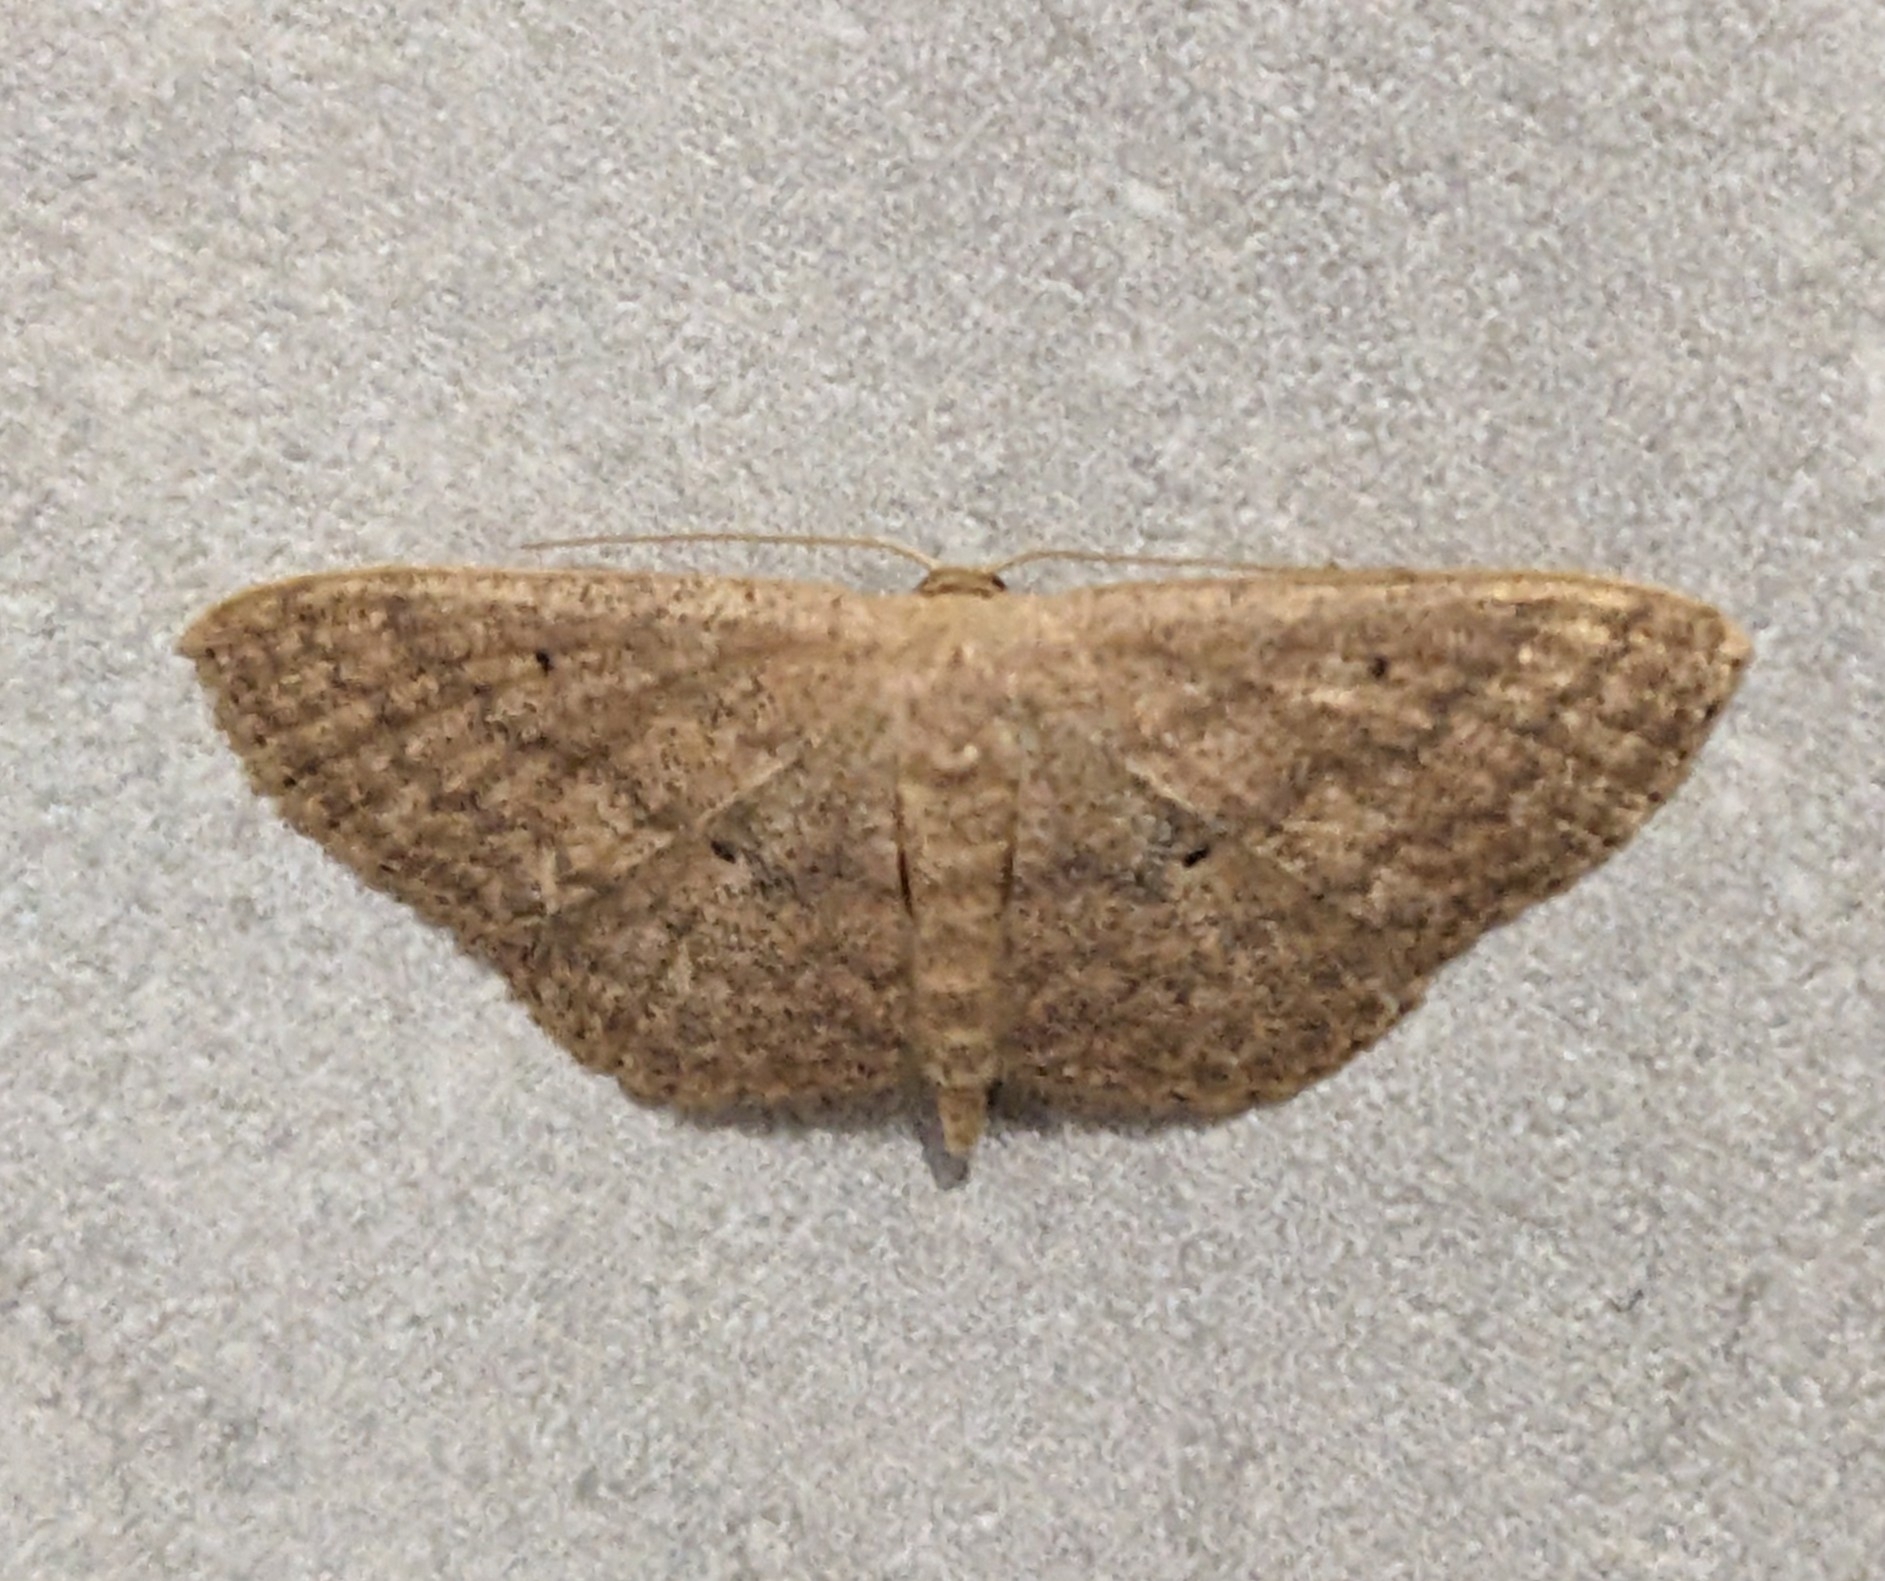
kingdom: Animalia
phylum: Arthropoda
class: Insecta
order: Lepidoptera
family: Geometridae
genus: Scopula
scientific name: Scopula minorata
